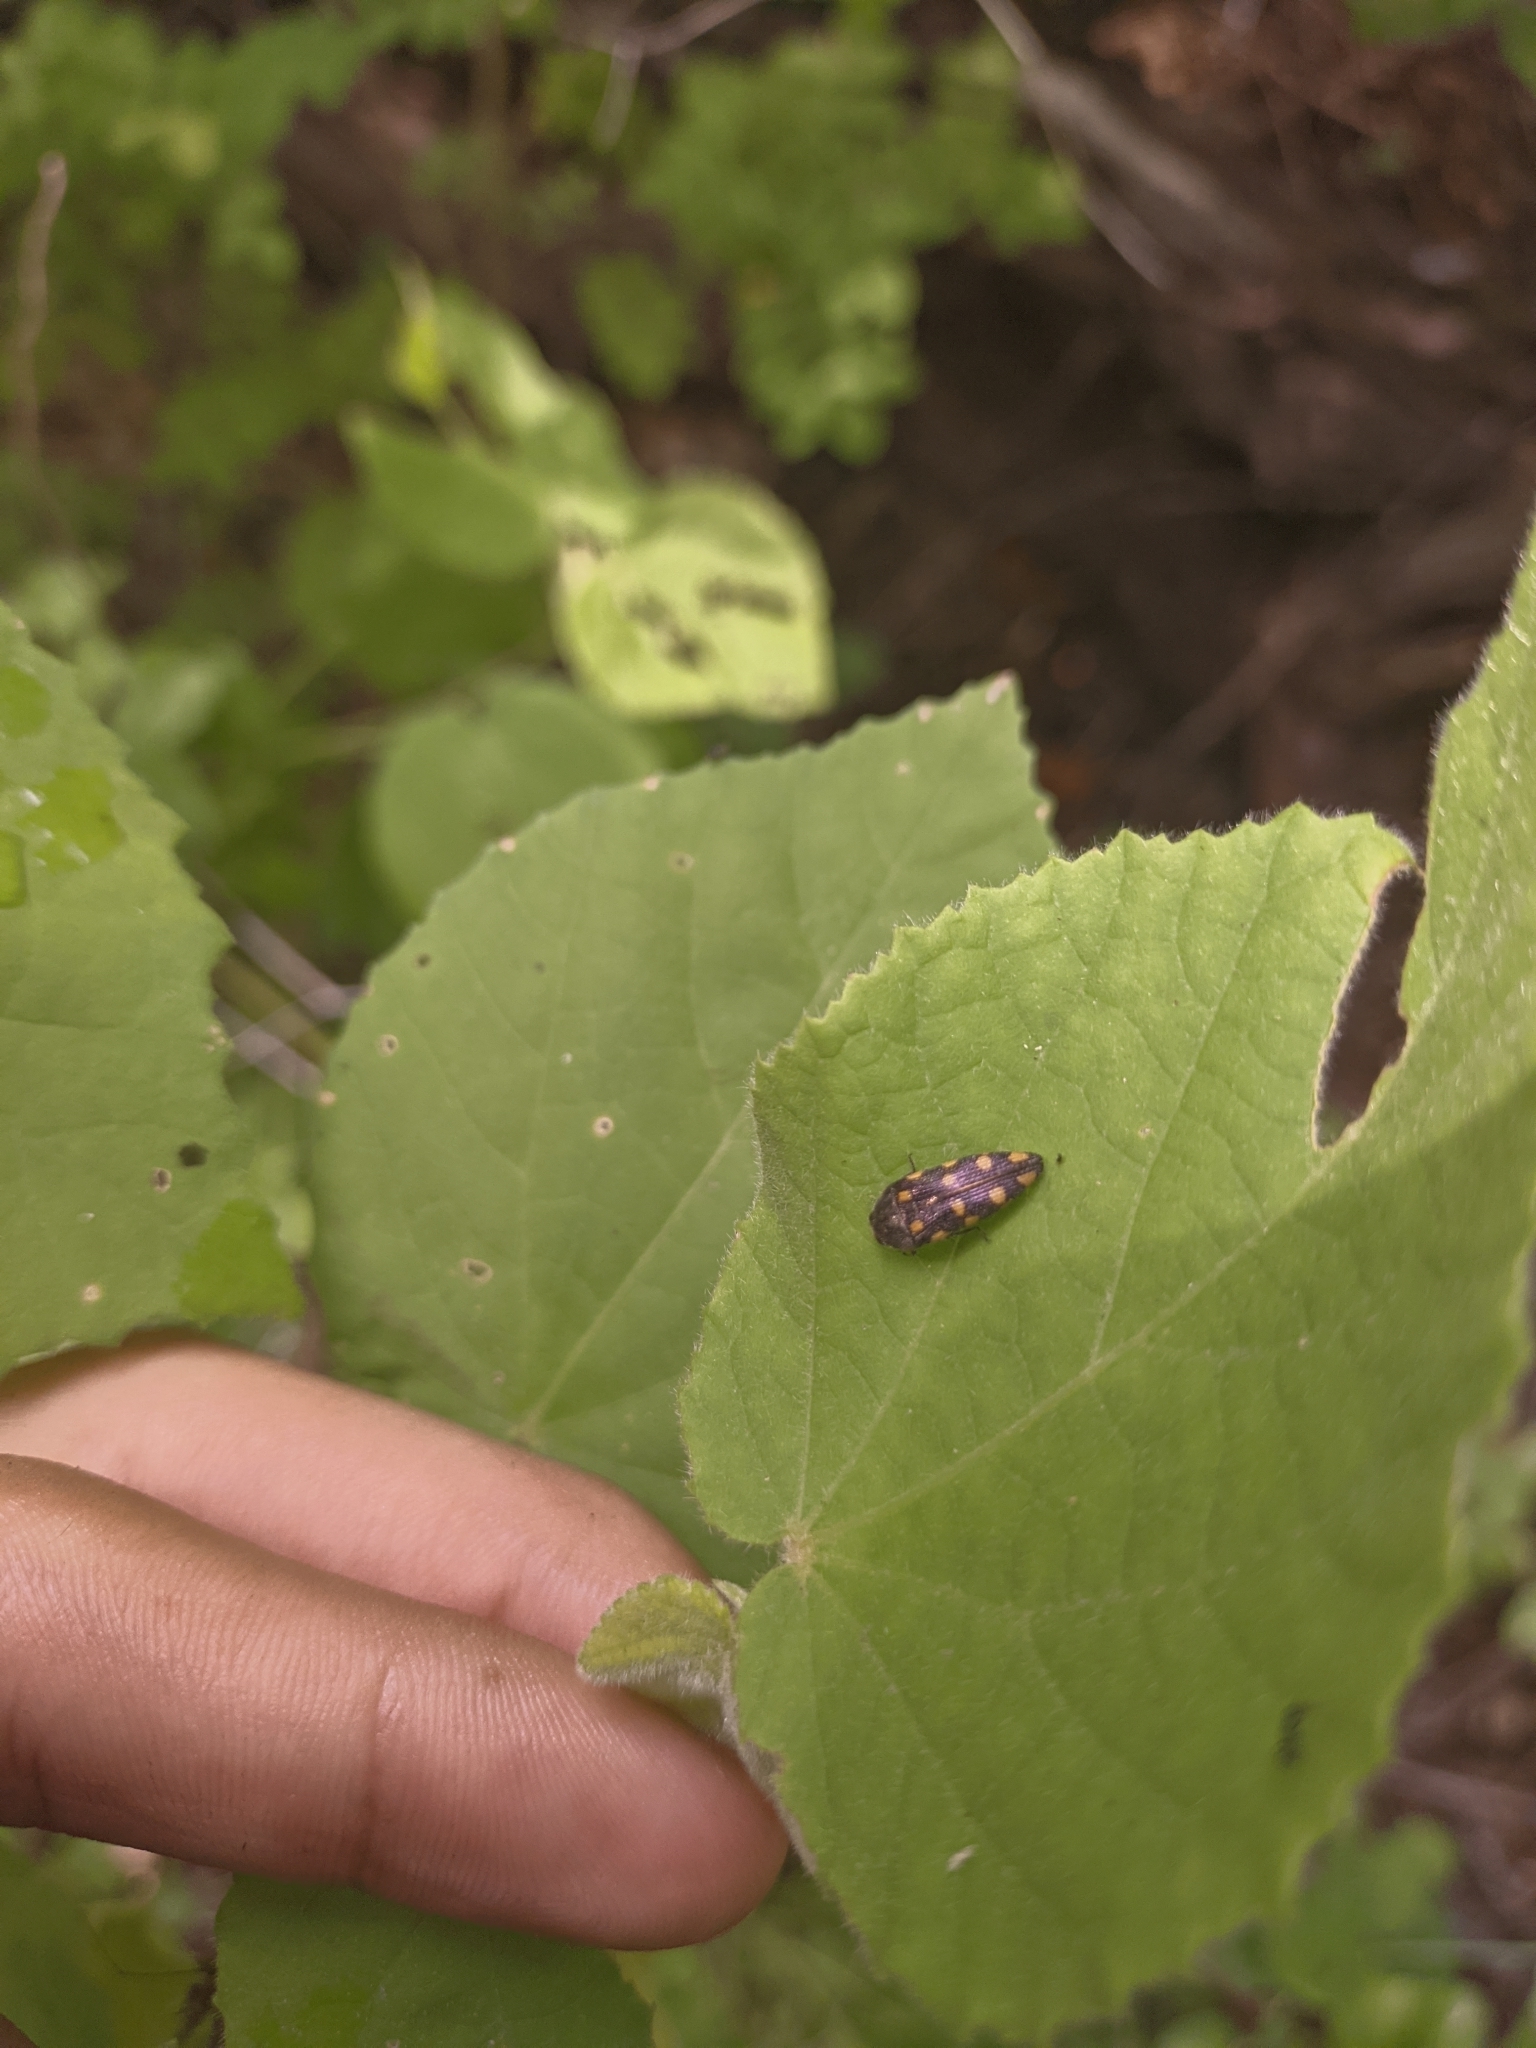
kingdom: Animalia
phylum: Arthropoda
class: Insecta
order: Coleoptera
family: Buprestidae
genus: Acmaeodera
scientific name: Acmaeodera xanthosticta
